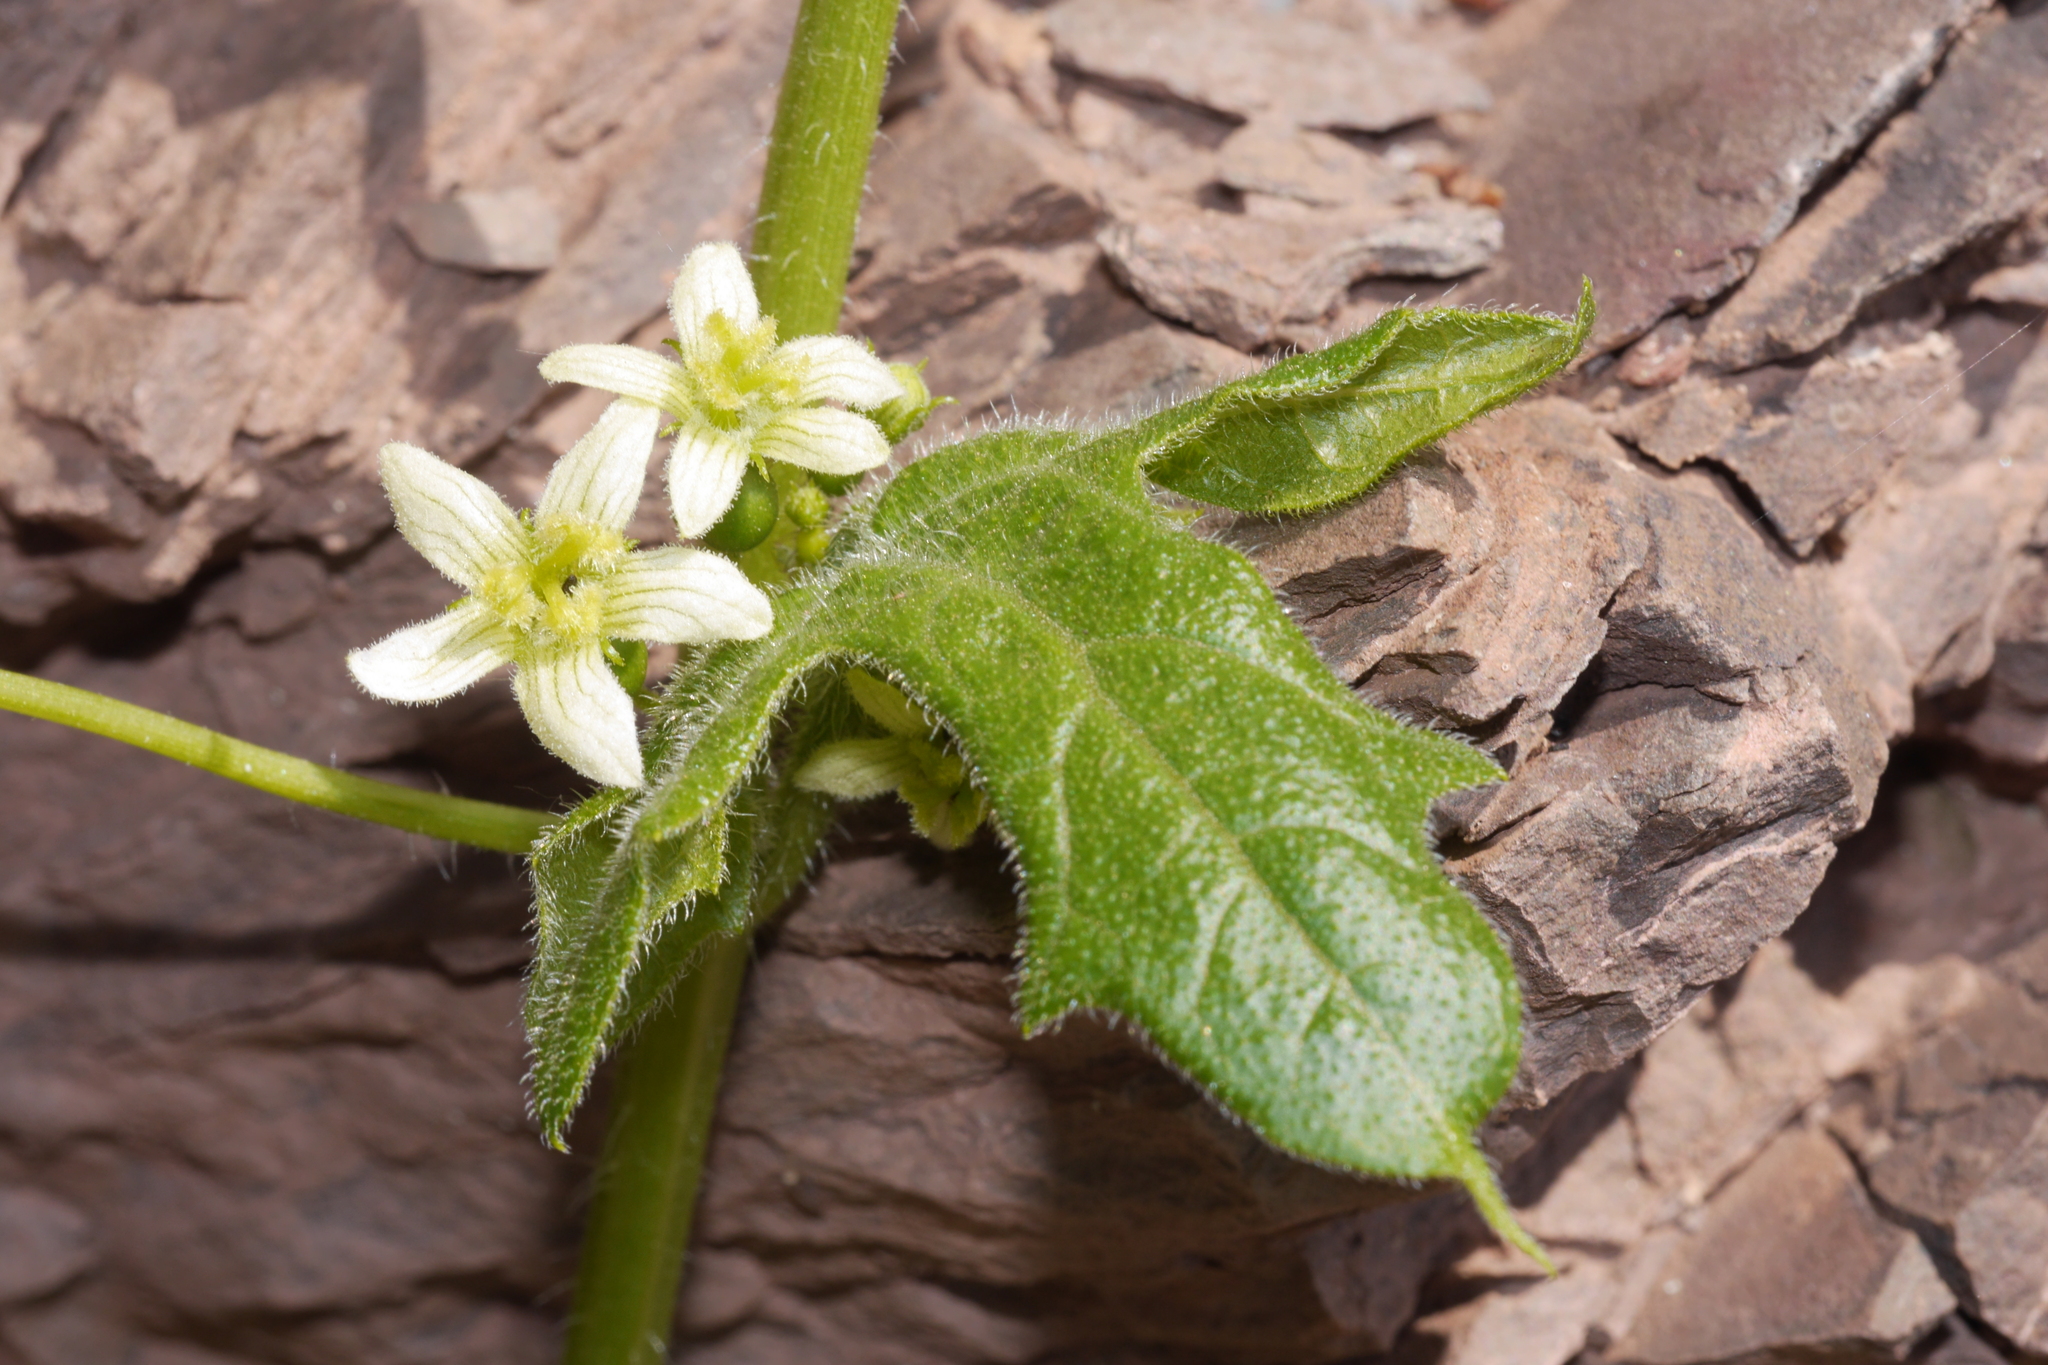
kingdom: Plantae
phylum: Tracheophyta
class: Magnoliopsida
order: Cucurbitales
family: Cucurbitaceae
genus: Bryonia
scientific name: Bryonia cretica
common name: Cretan bryony
